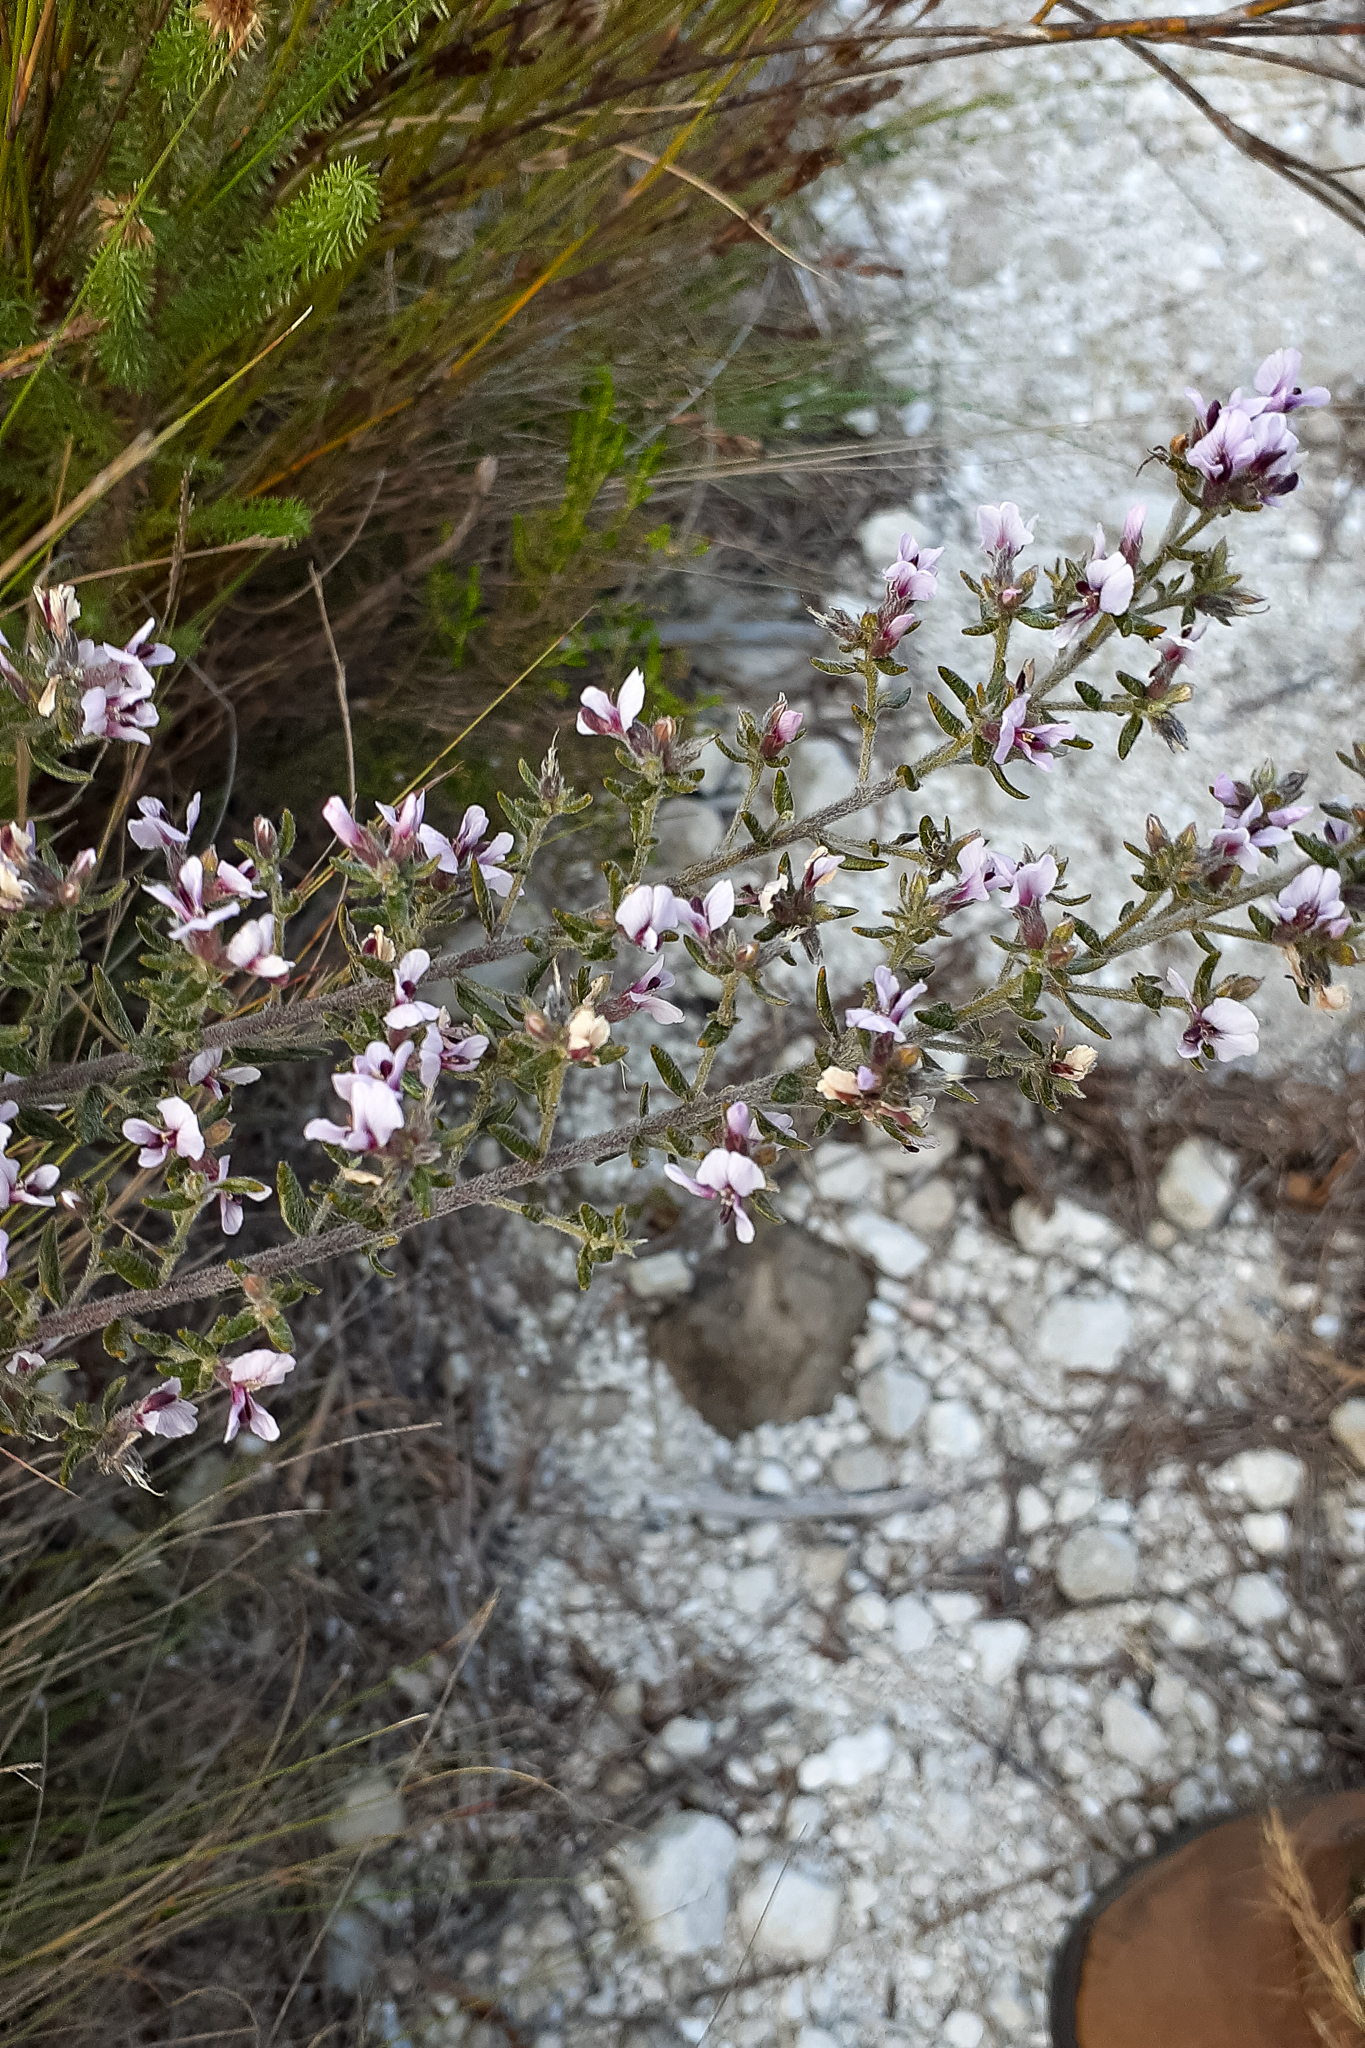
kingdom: Plantae
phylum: Tracheophyta
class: Magnoliopsida
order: Fabales
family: Fabaceae
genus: Amphithalea
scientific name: Amphithalea ericifolia
